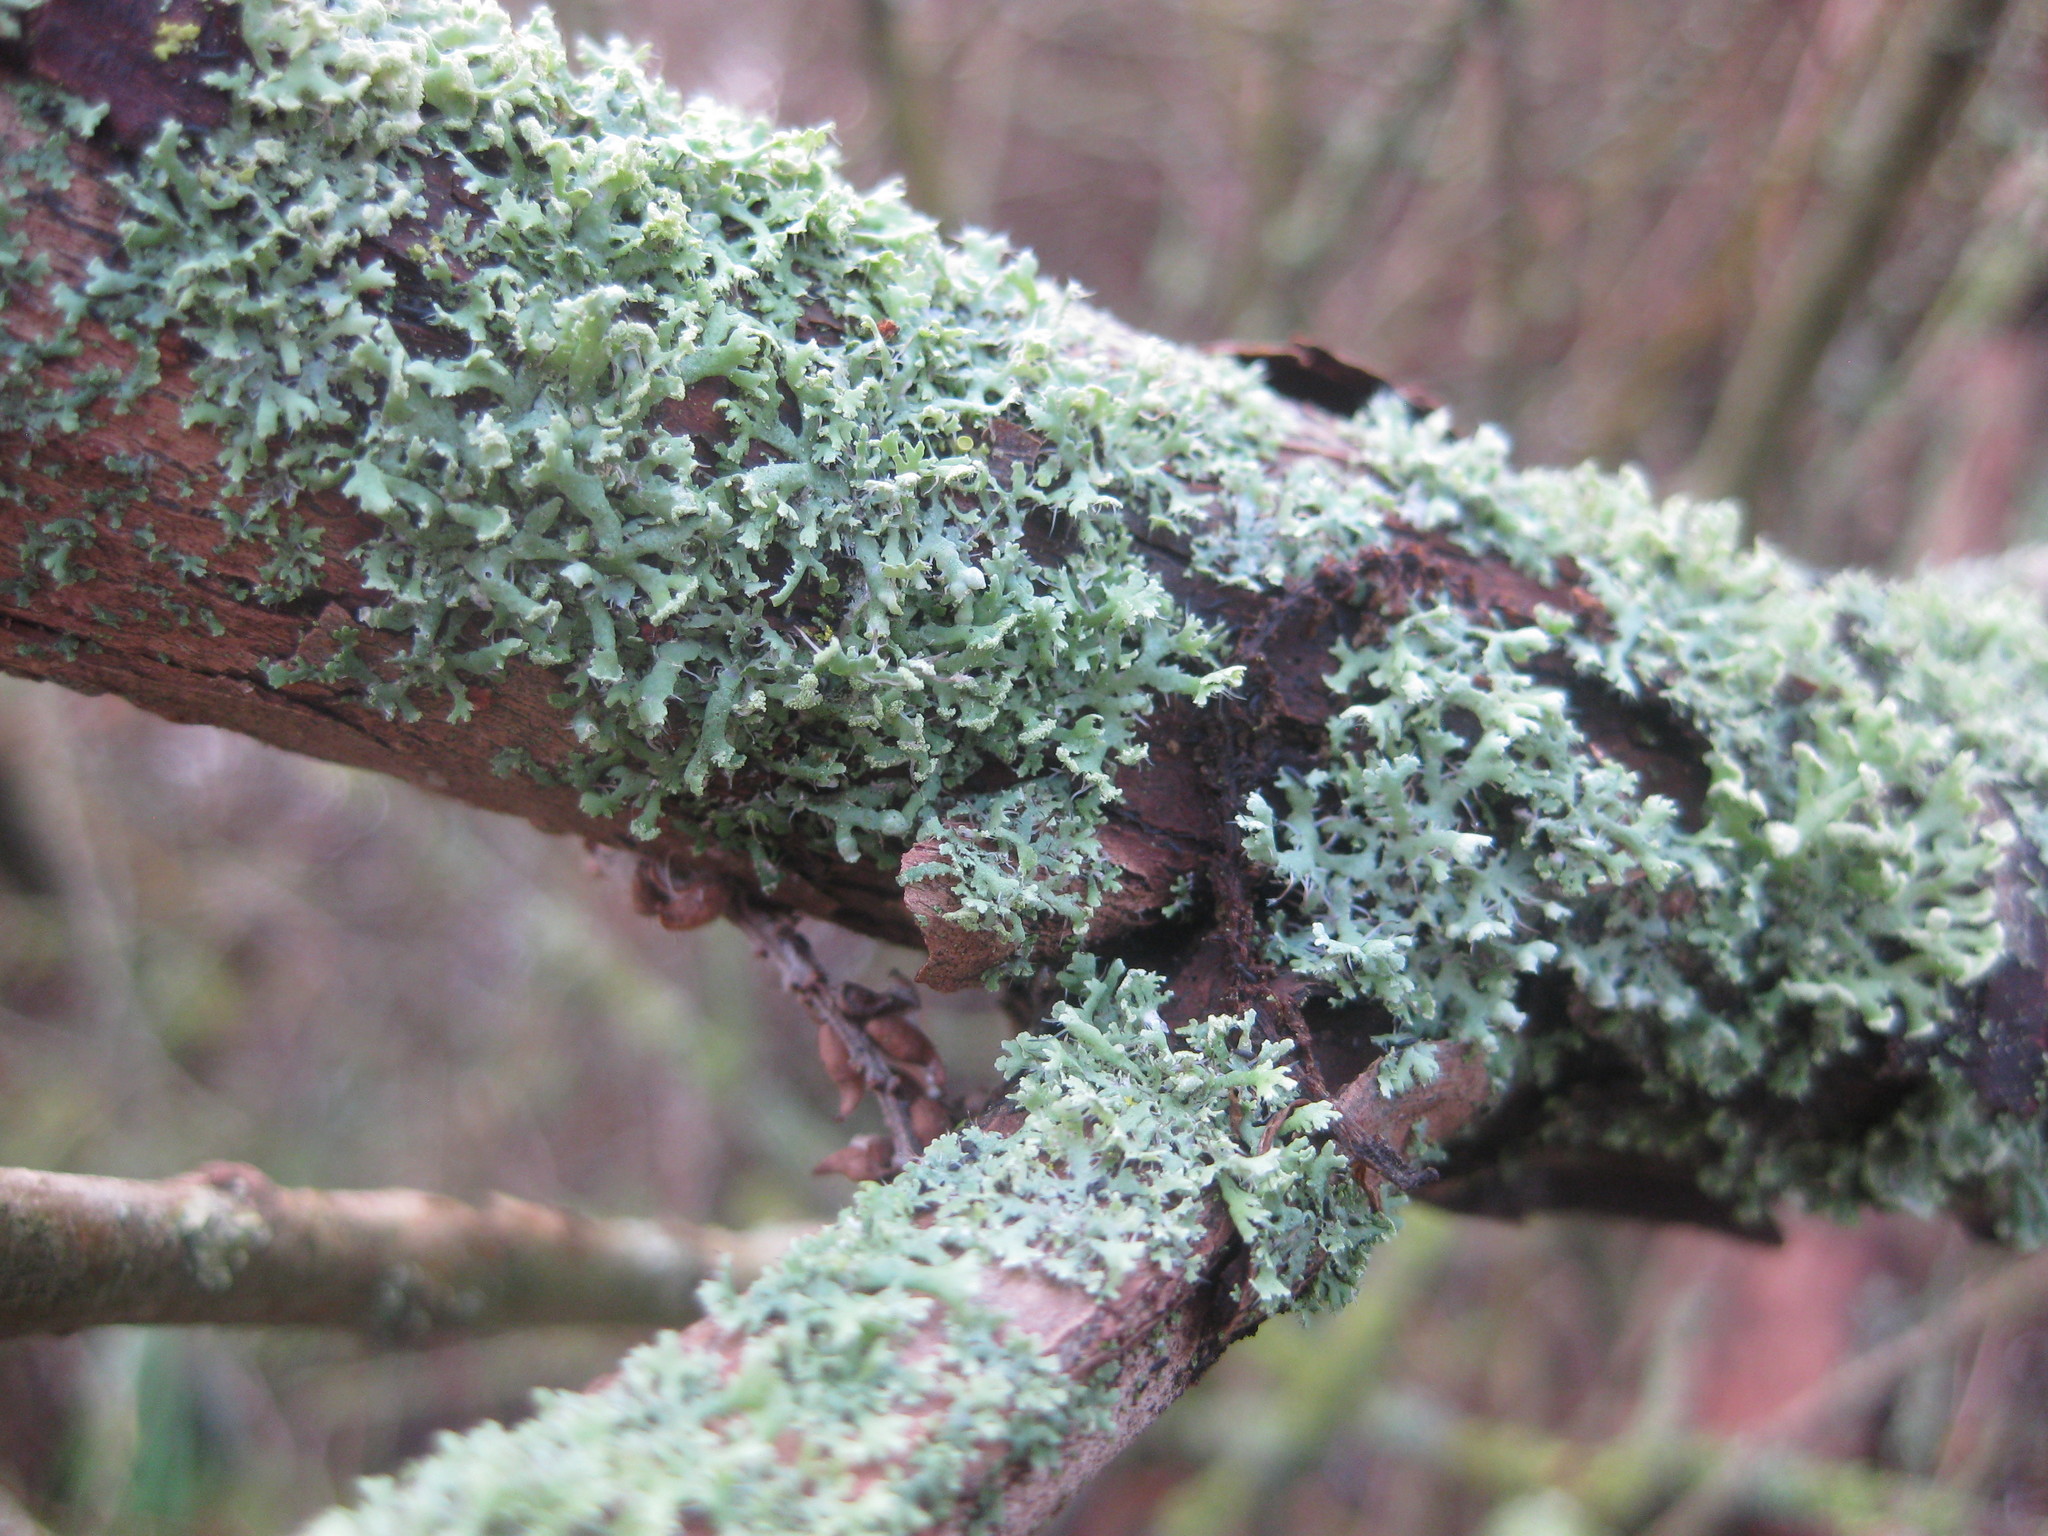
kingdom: Fungi
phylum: Ascomycota
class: Lecanoromycetes
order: Caliciales
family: Physciaceae
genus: Physcia
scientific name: Physcia adscendens
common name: Hooded rosette lichen
